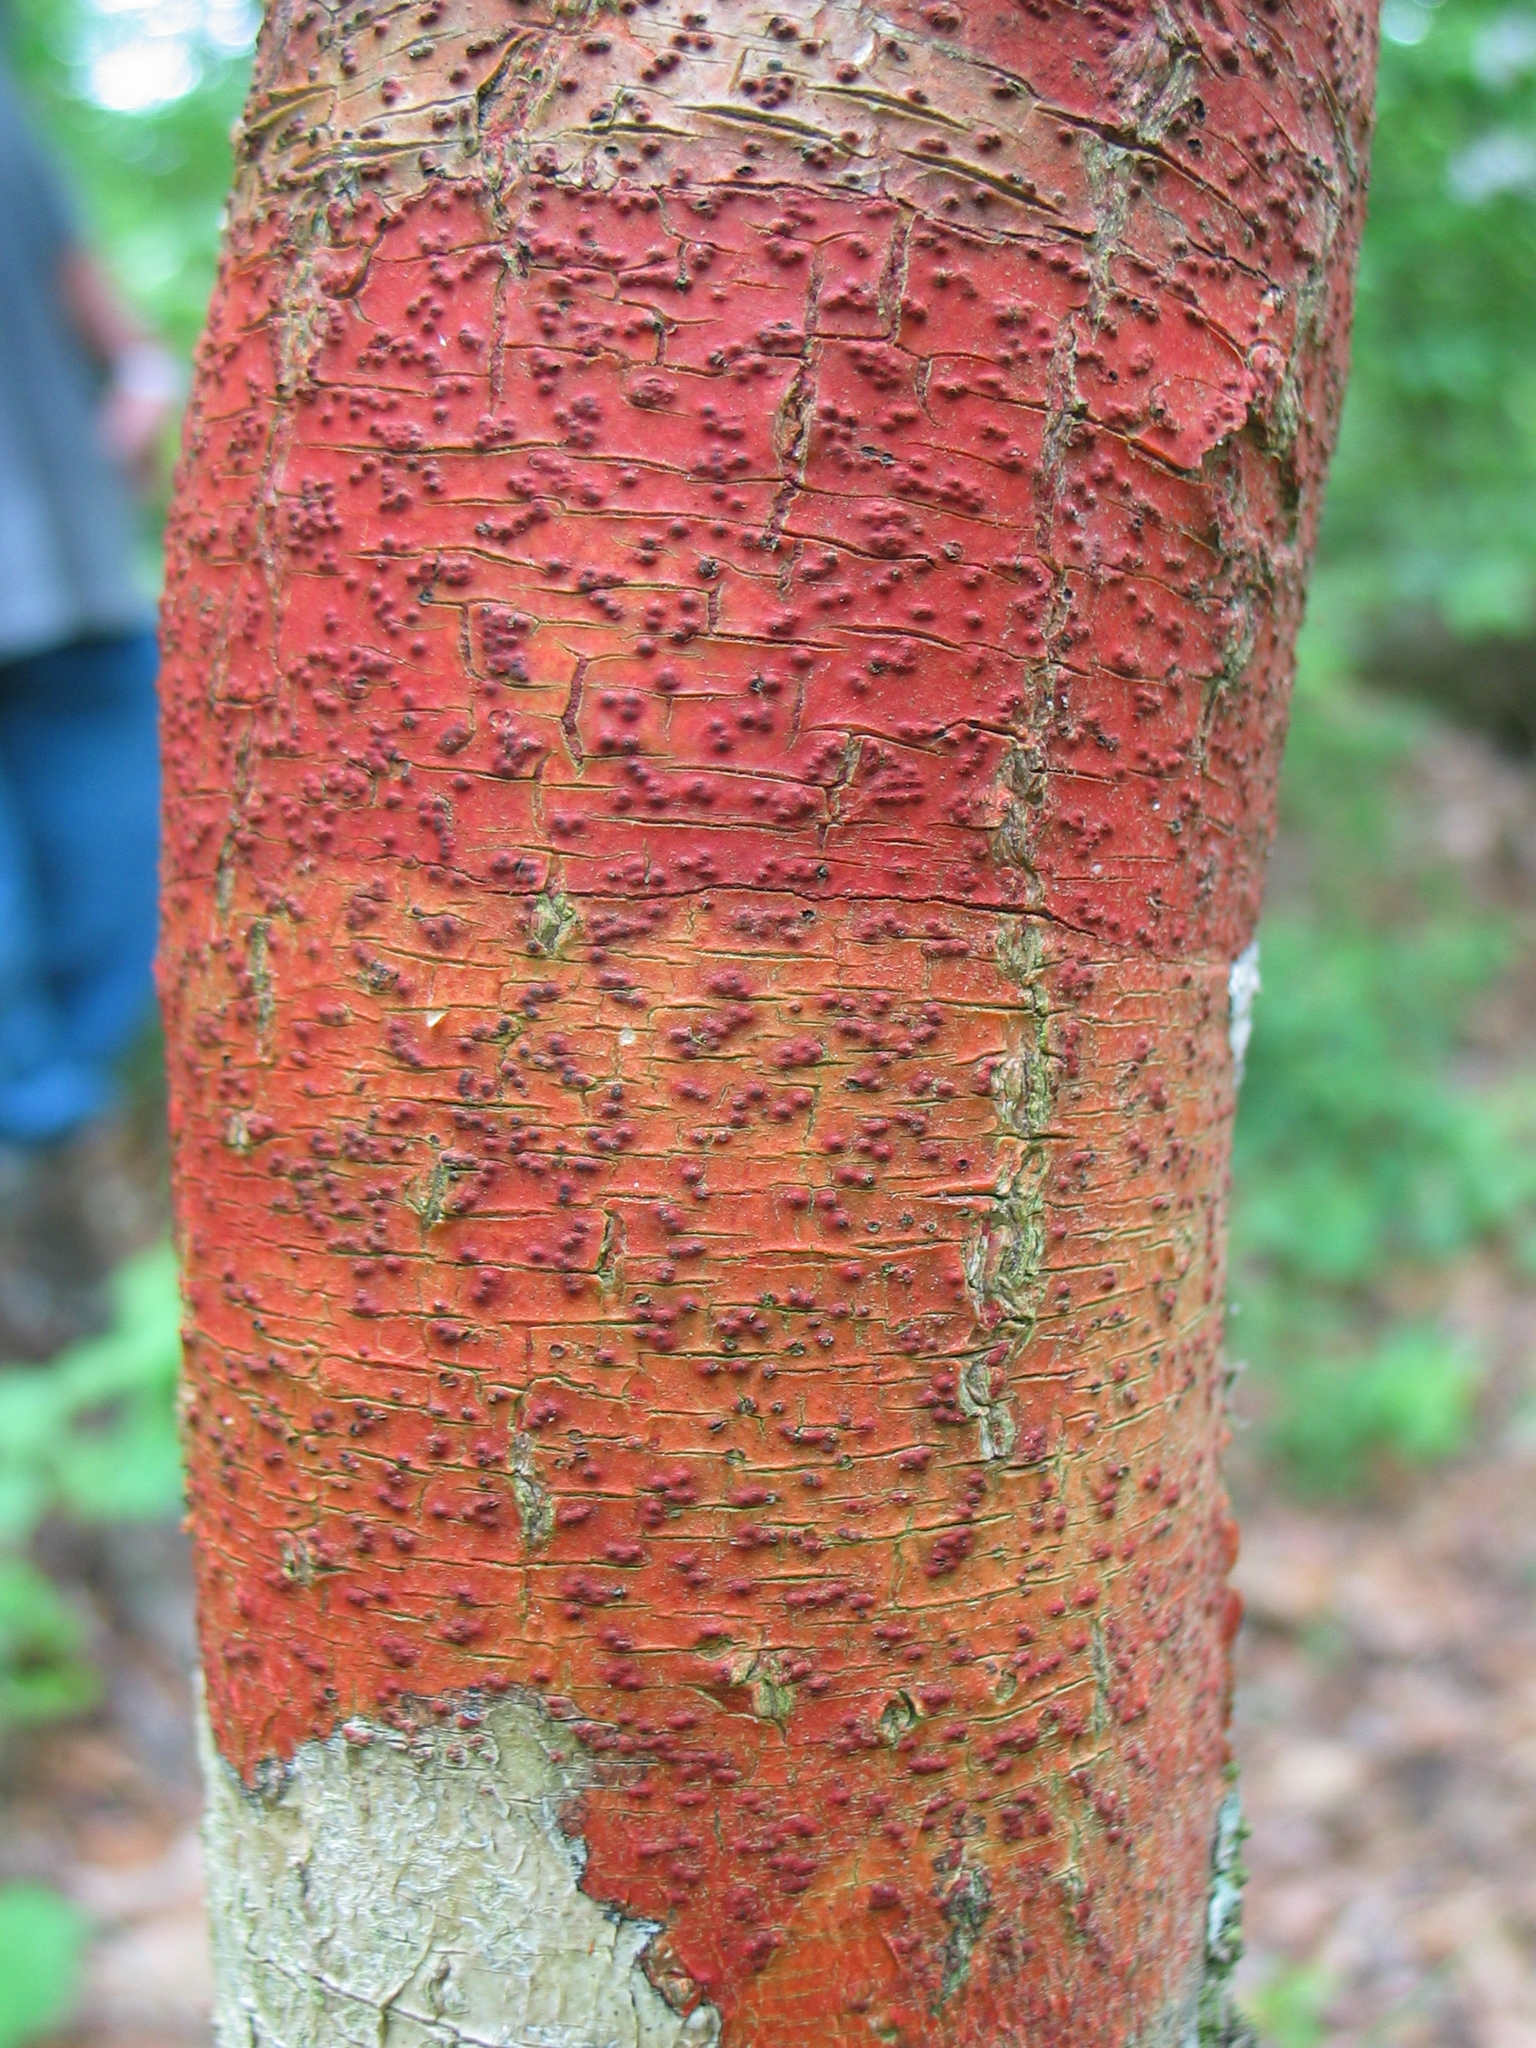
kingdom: Fungi
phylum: Ascomycota
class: Eurotiomycetes
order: Pyrenulales
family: Pyrenulaceae
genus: Pyrenula
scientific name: Pyrenula cruenta
